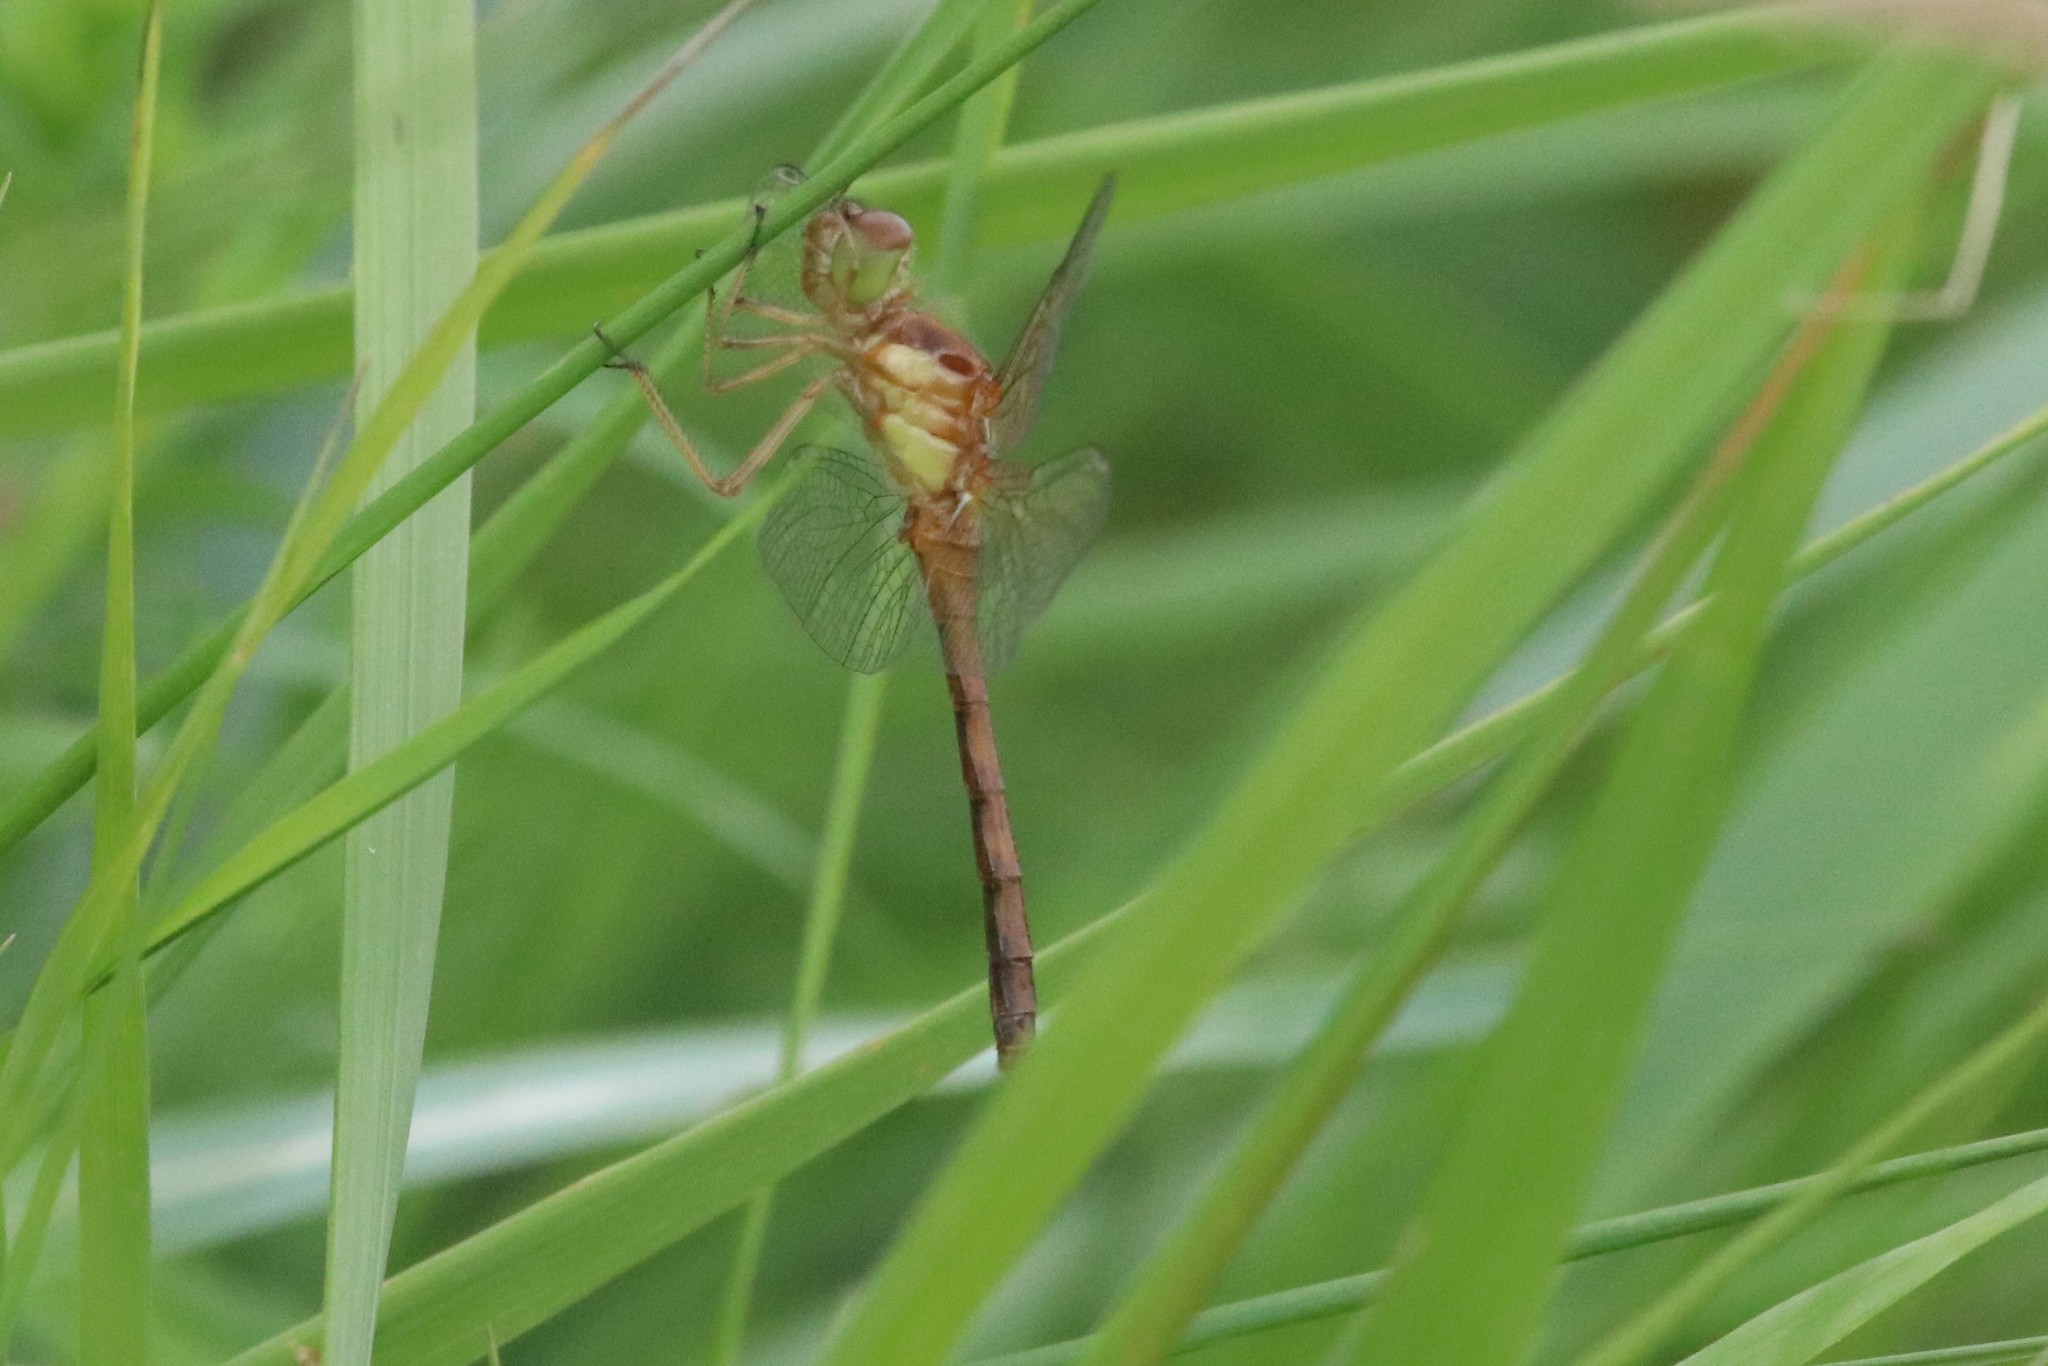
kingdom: Animalia
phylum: Arthropoda
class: Insecta
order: Odonata
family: Libellulidae
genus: Sympetrum
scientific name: Sympetrum vicinum
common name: Autumn meadowhawk
